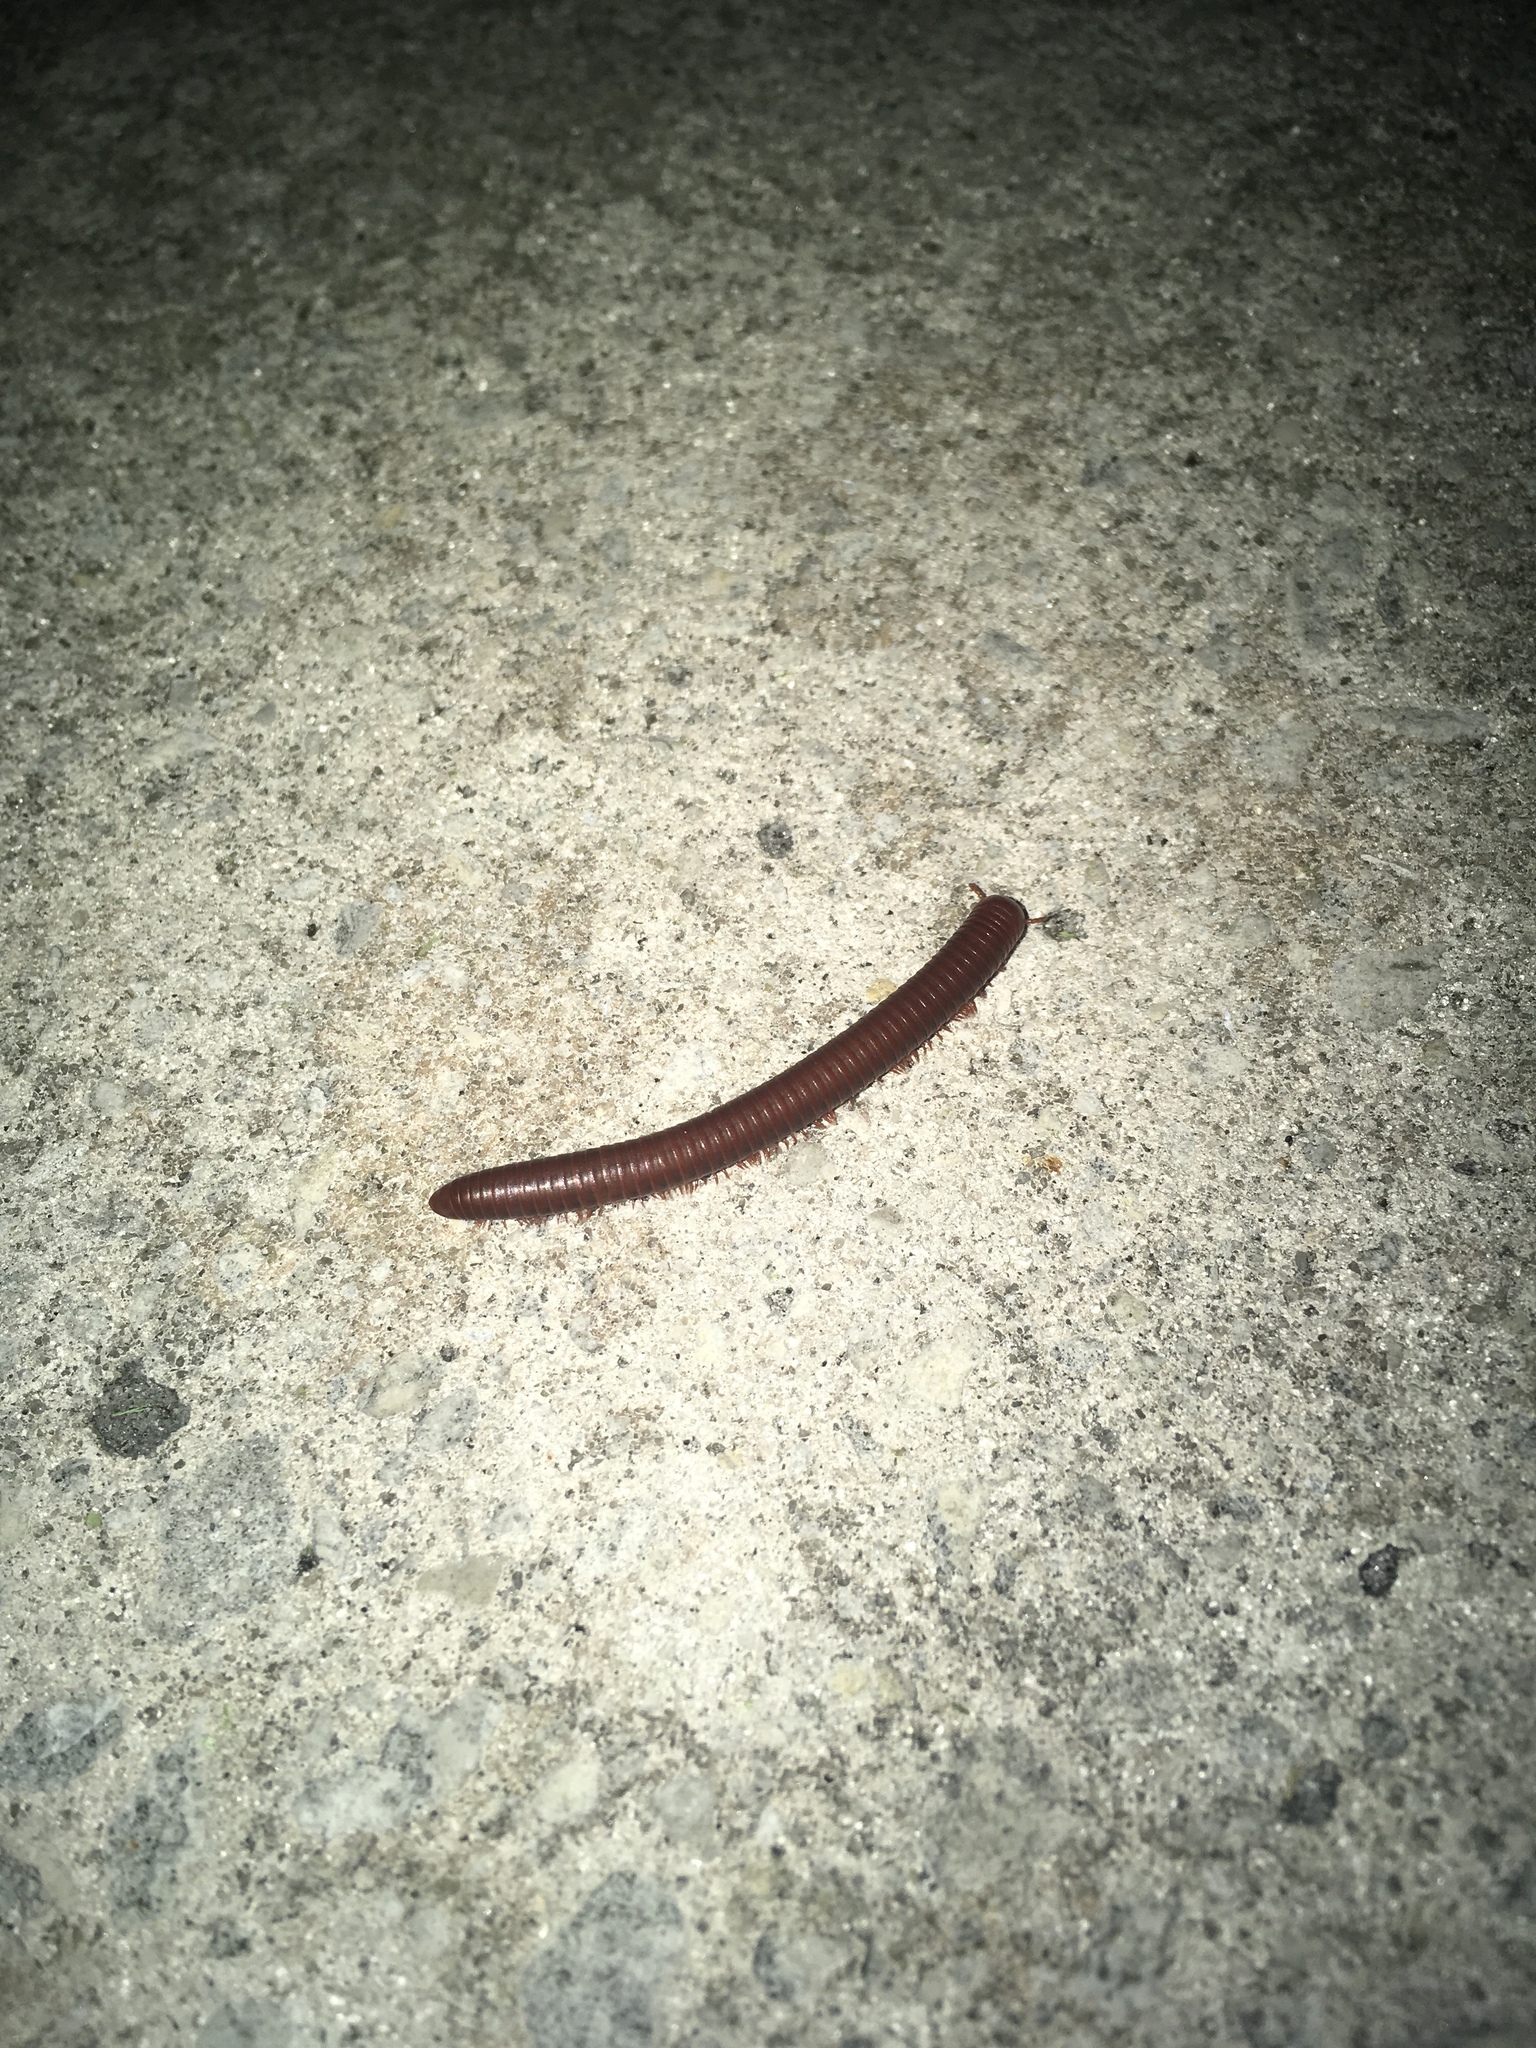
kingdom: Animalia
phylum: Arthropoda
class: Diplopoda
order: Spirobolida
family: Pachybolidae
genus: Trigoniulus
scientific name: Trigoniulus corallinus
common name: Millipede
